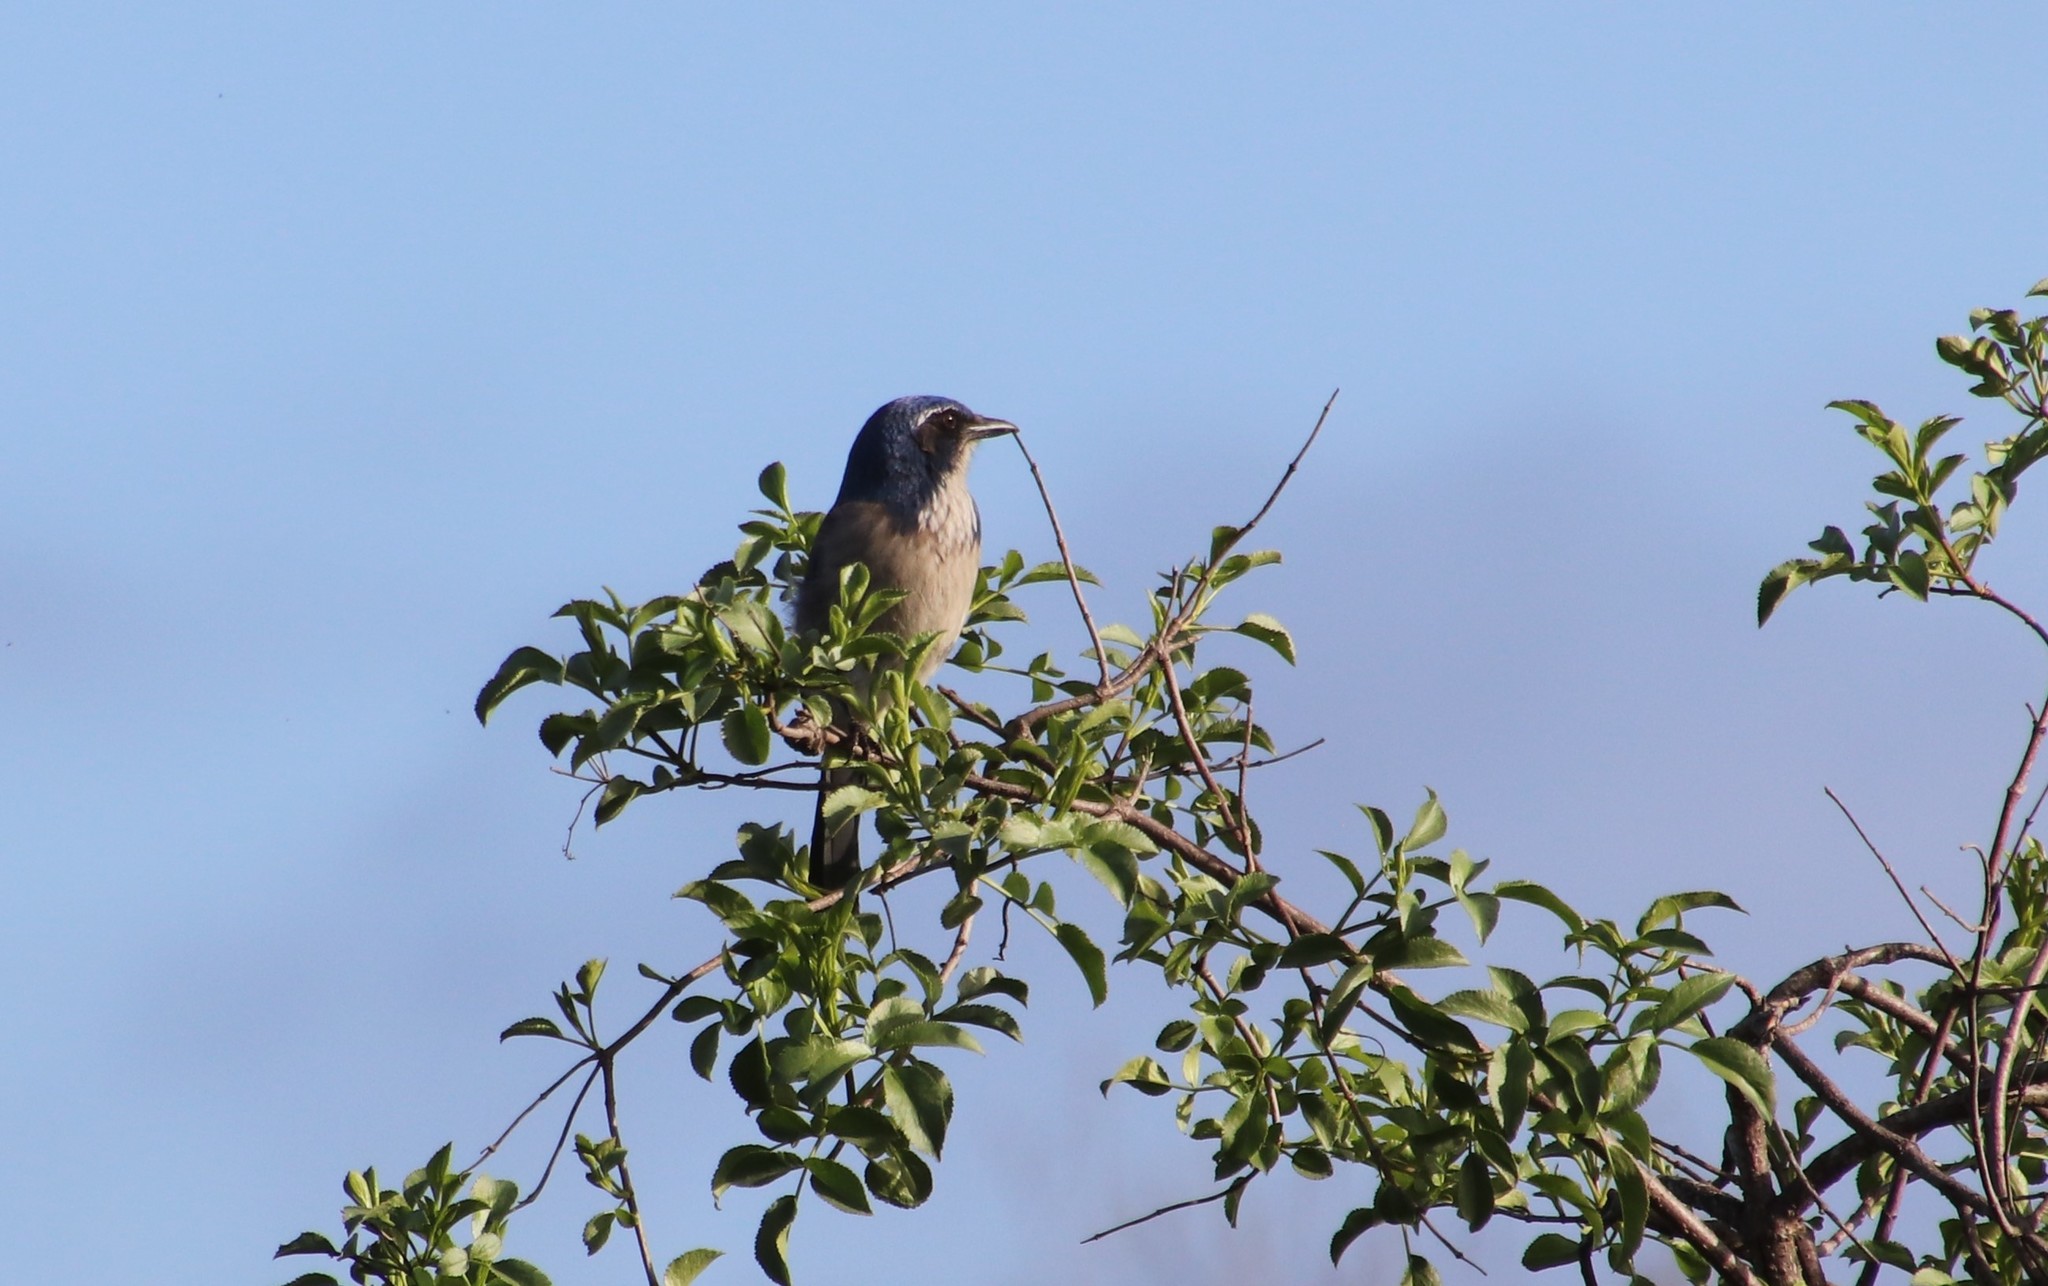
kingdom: Animalia
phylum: Chordata
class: Aves
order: Passeriformes
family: Corvidae
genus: Aphelocoma
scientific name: Aphelocoma californica
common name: California scrub-jay
